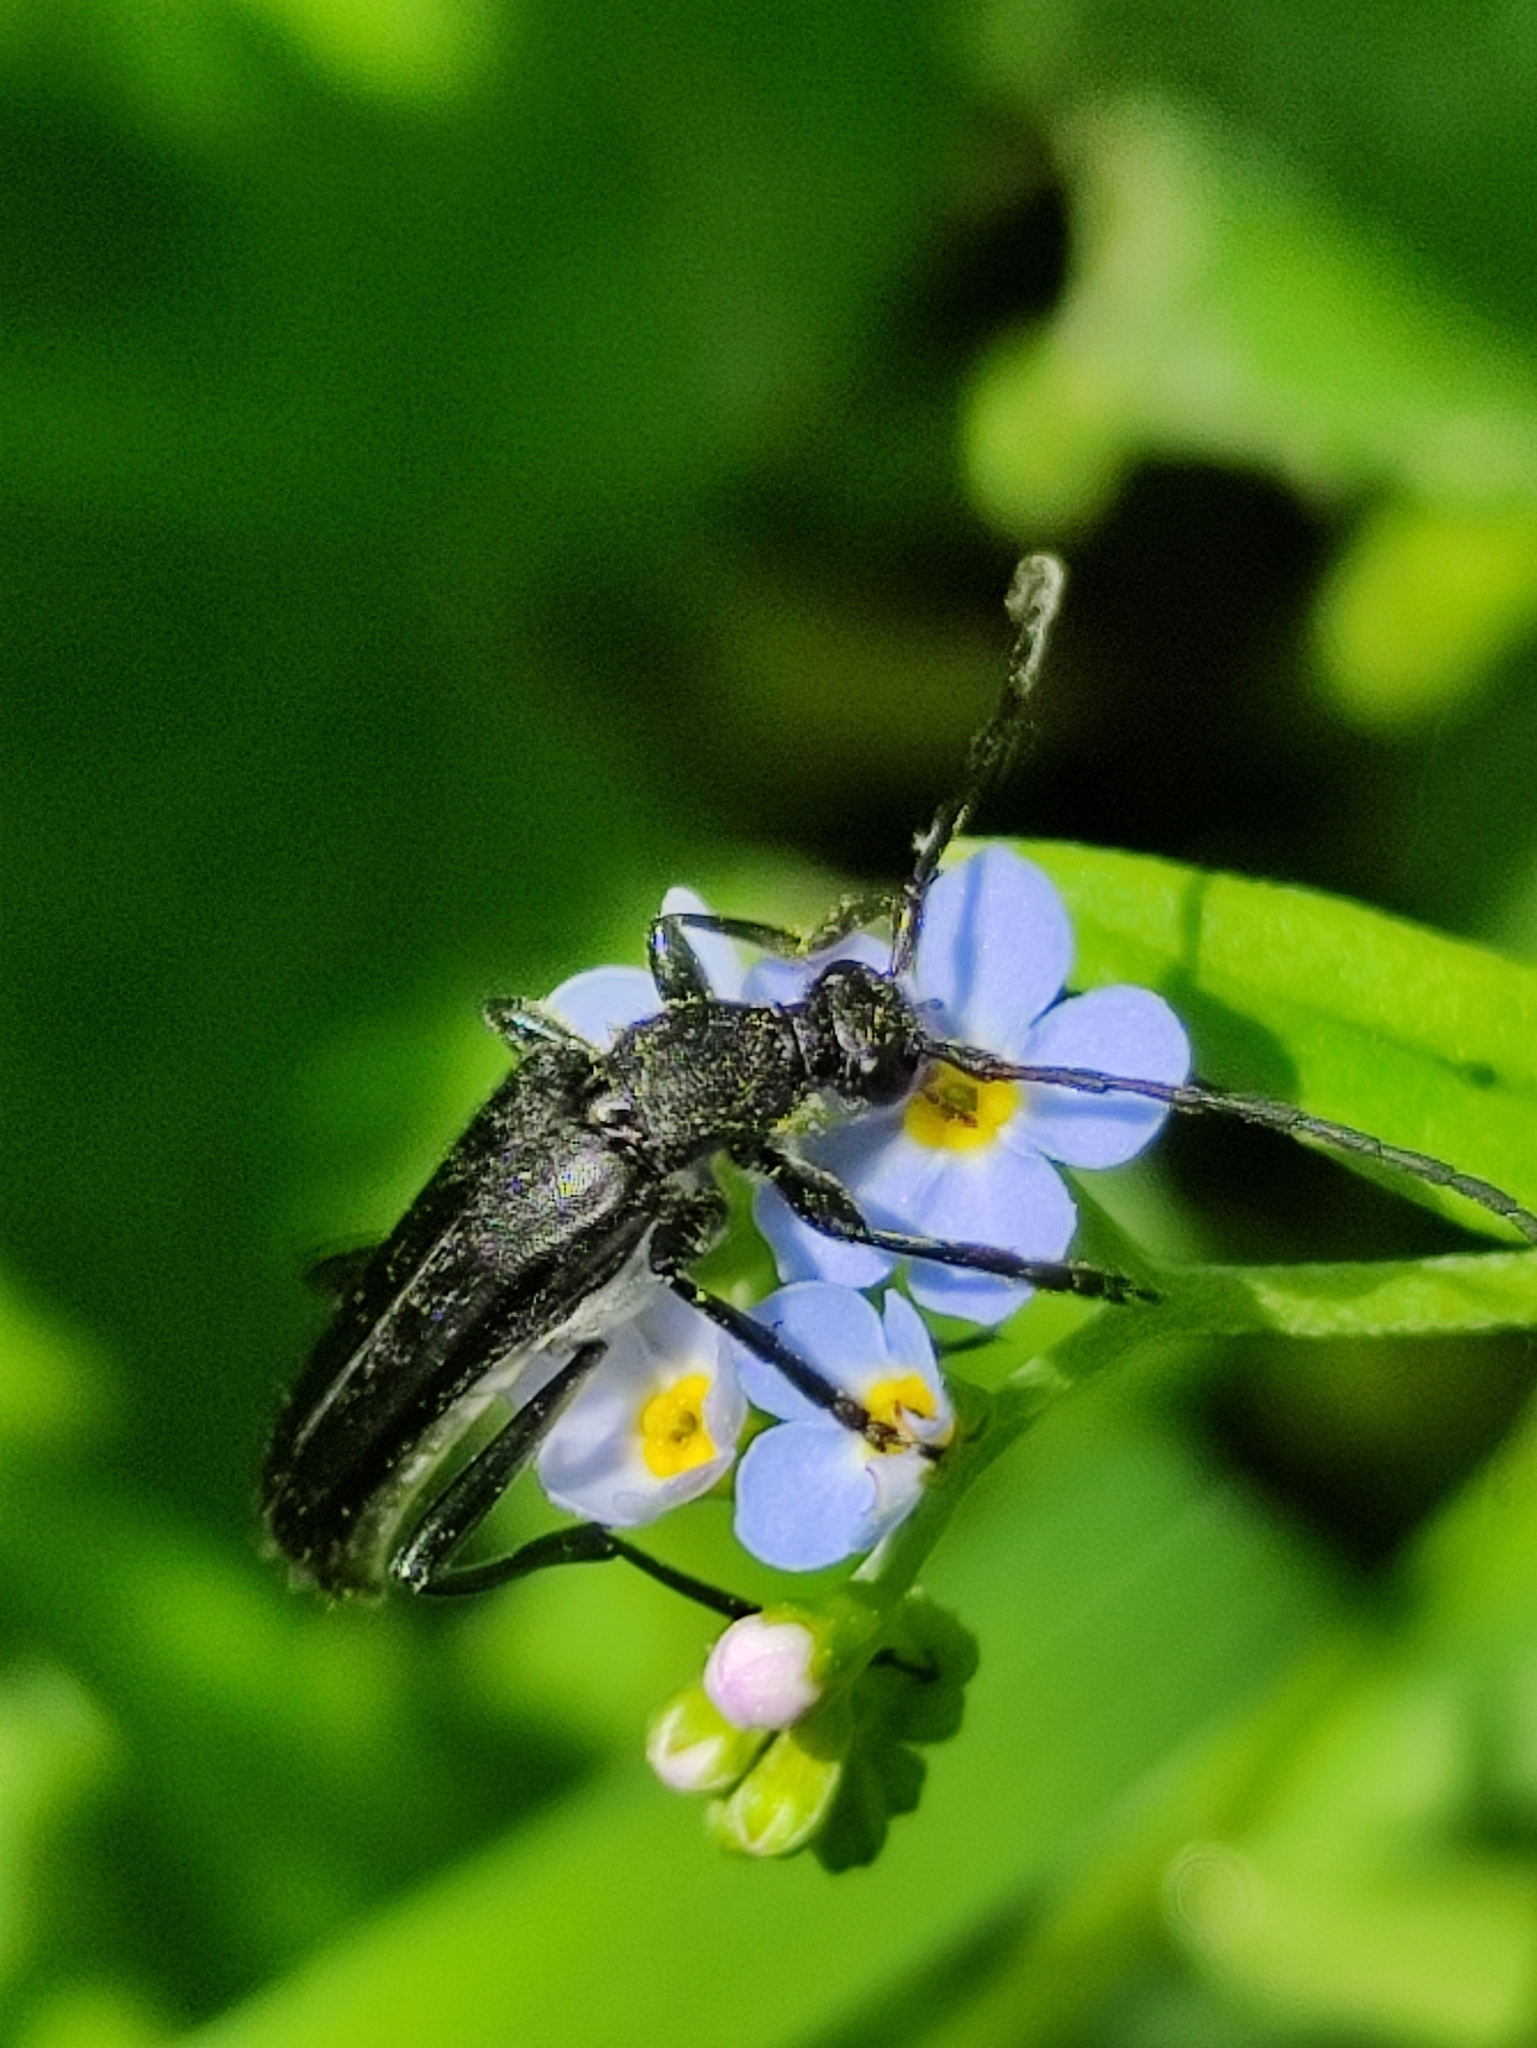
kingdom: Animalia
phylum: Arthropoda
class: Insecta
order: Coleoptera
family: Cerambycidae
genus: Leptura
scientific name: Leptura aethiops
